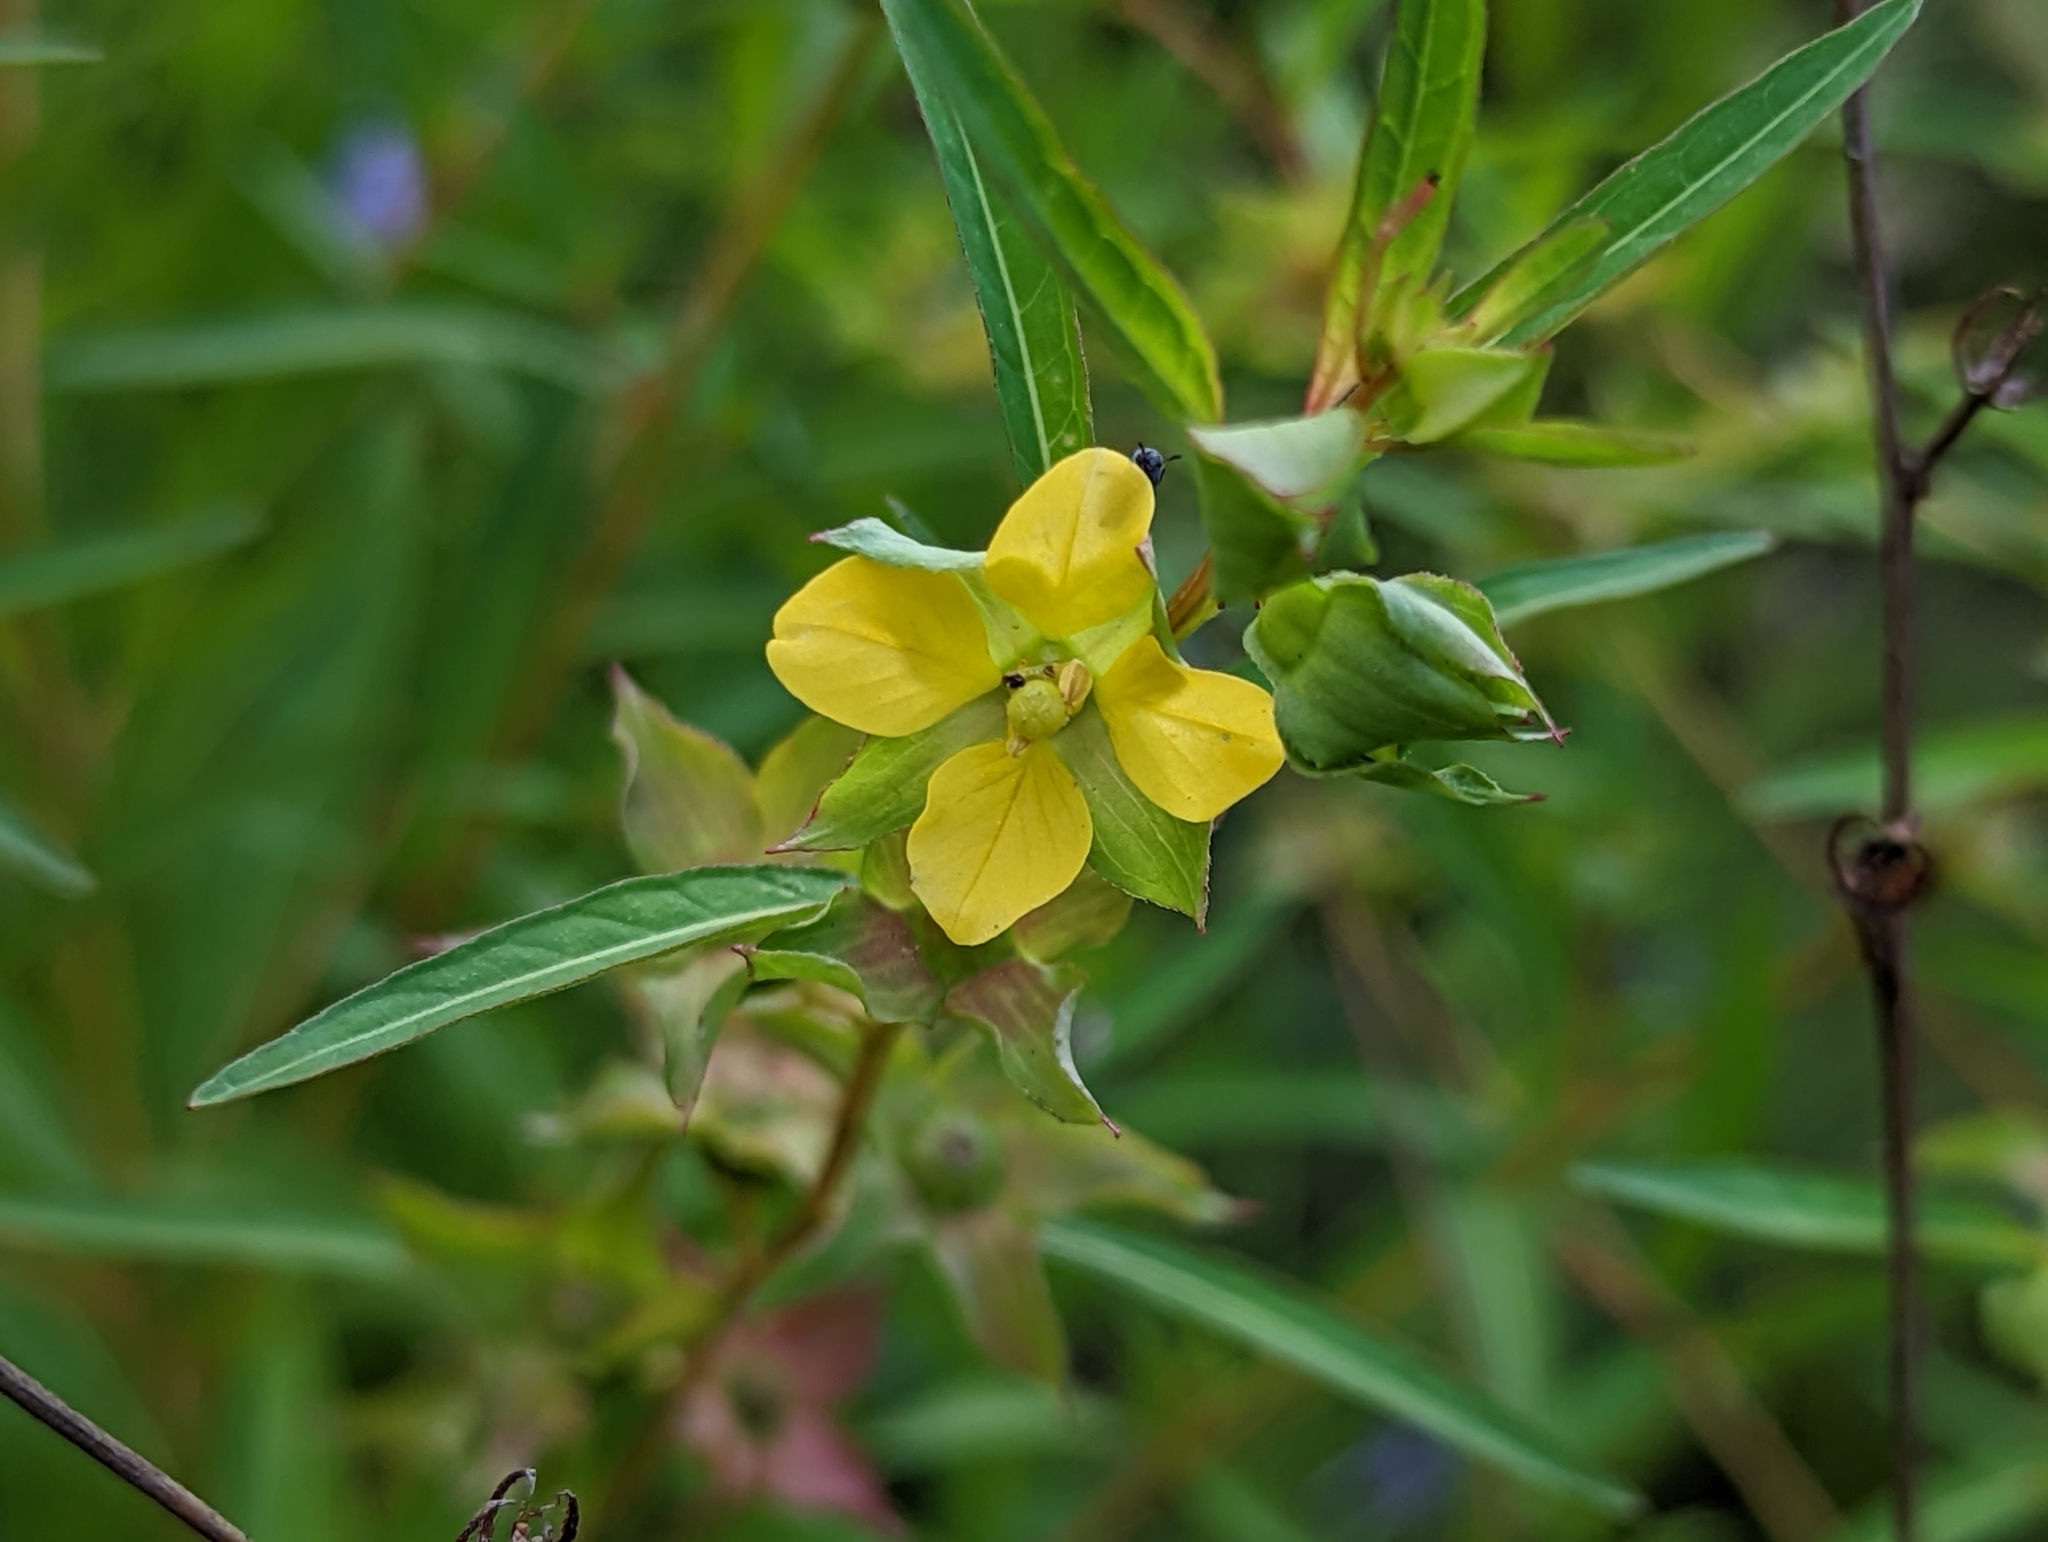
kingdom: Plantae
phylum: Tracheophyta
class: Magnoliopsida
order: Myrtales
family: Onagraceae
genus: Ludwigia
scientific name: Ludwigia alternifolia
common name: Rattlebox
